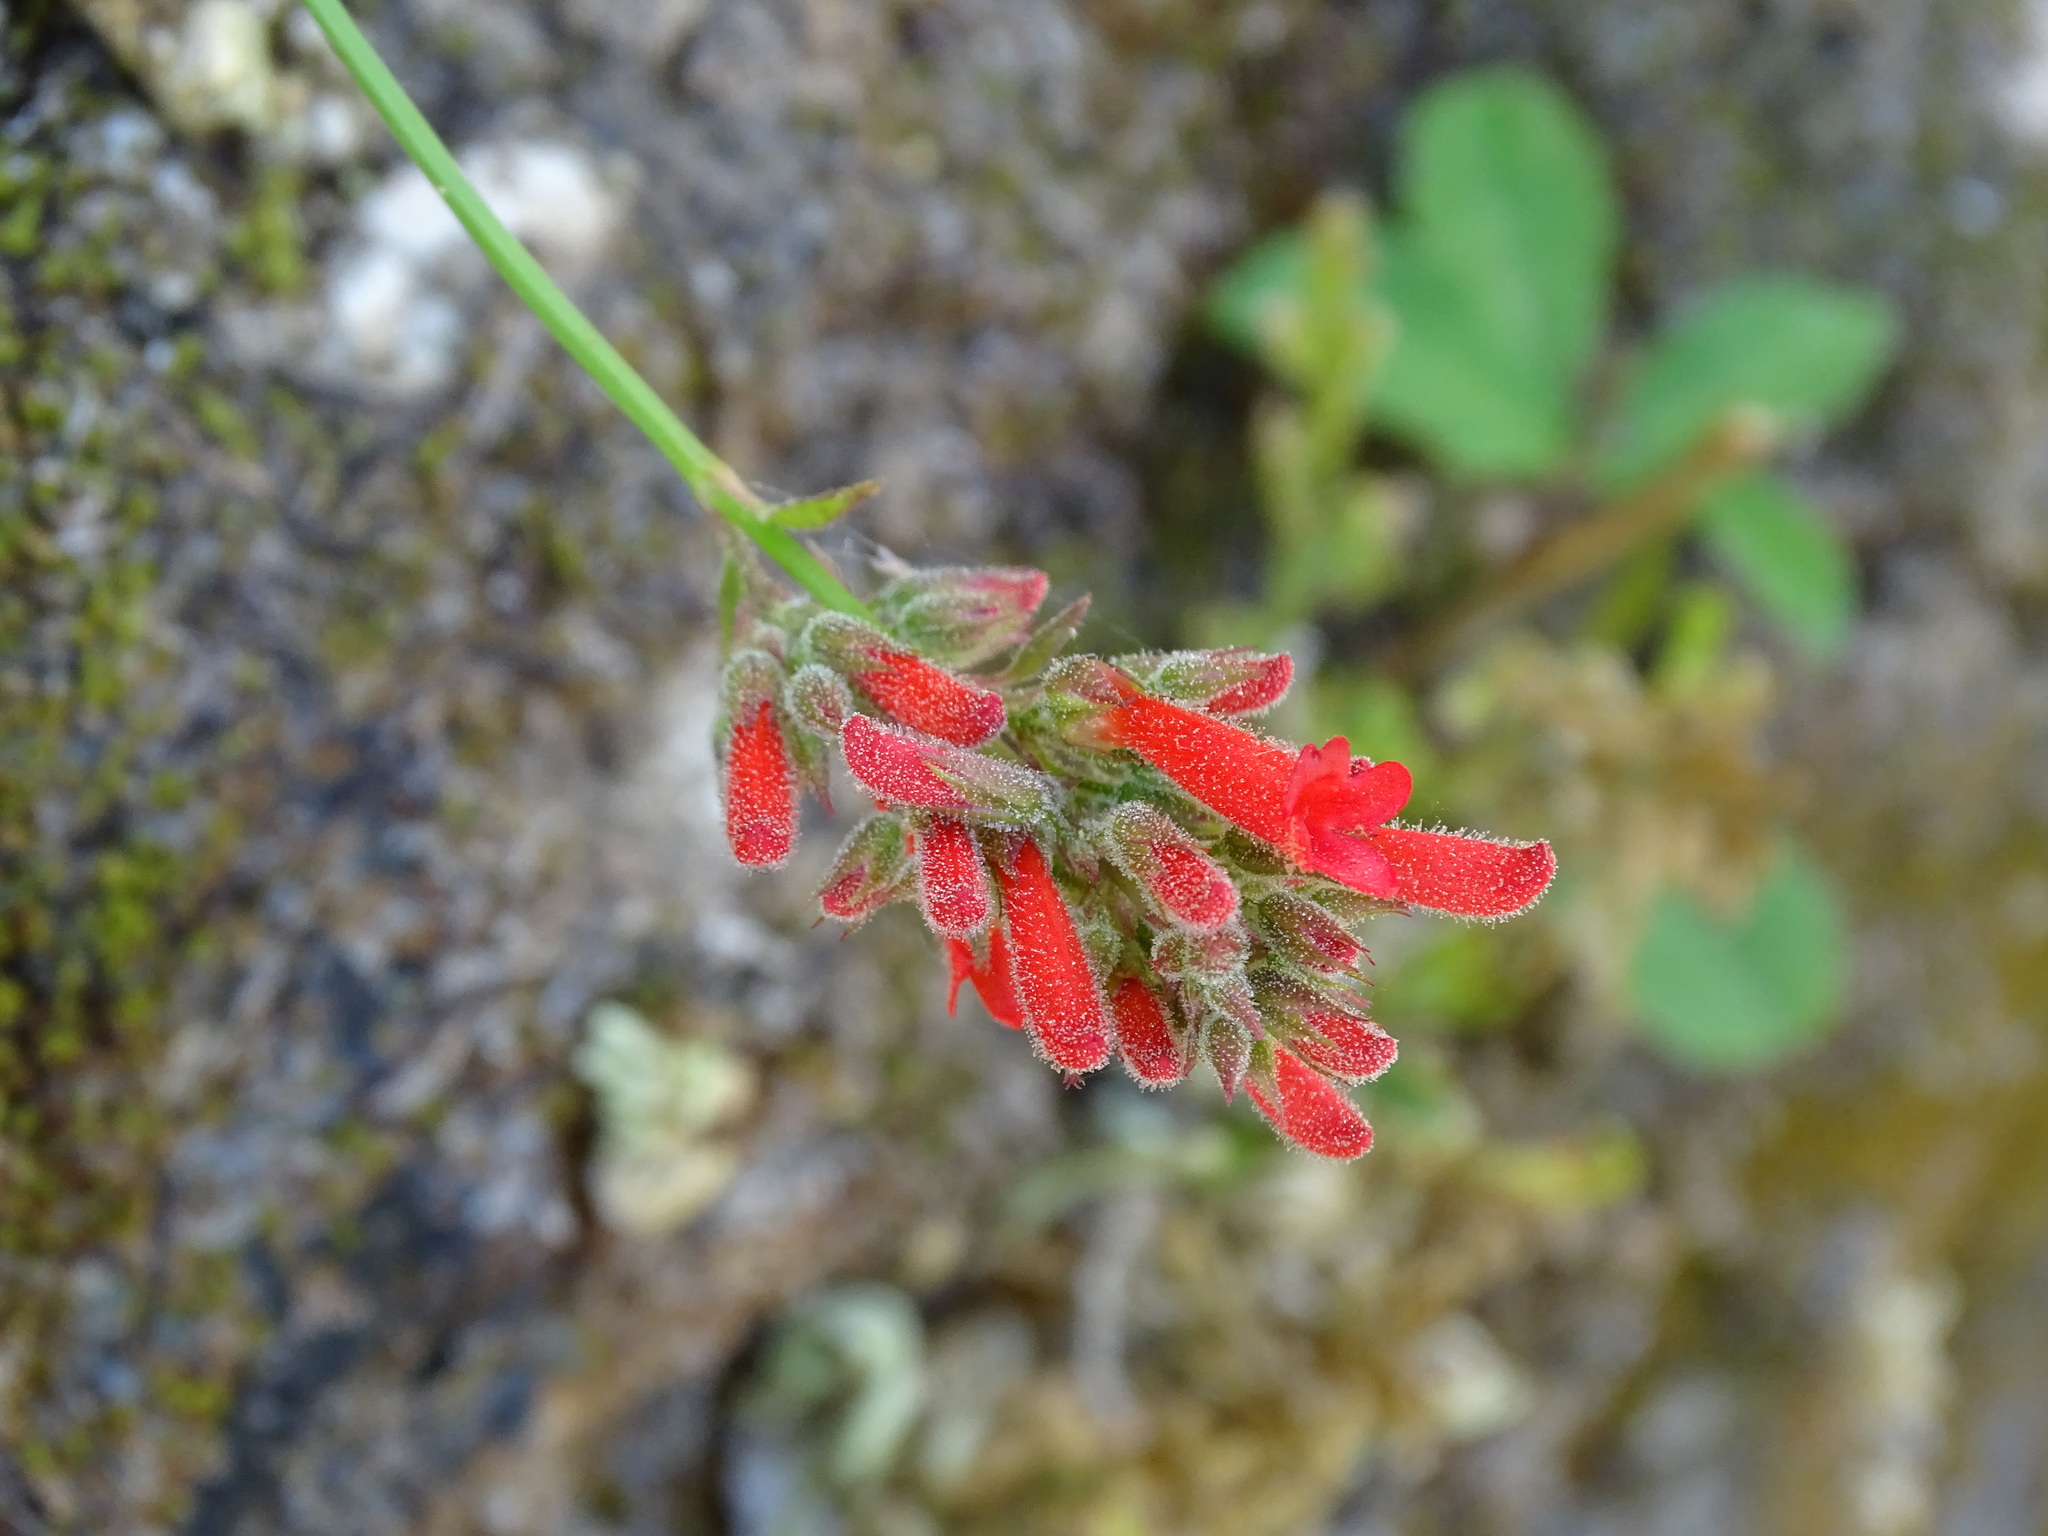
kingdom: Plantae
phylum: Tracheophyta
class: Magnoliopsida
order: Lamiales
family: Plantaginaceae
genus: Russelia
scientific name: Russelia sarmentosa
